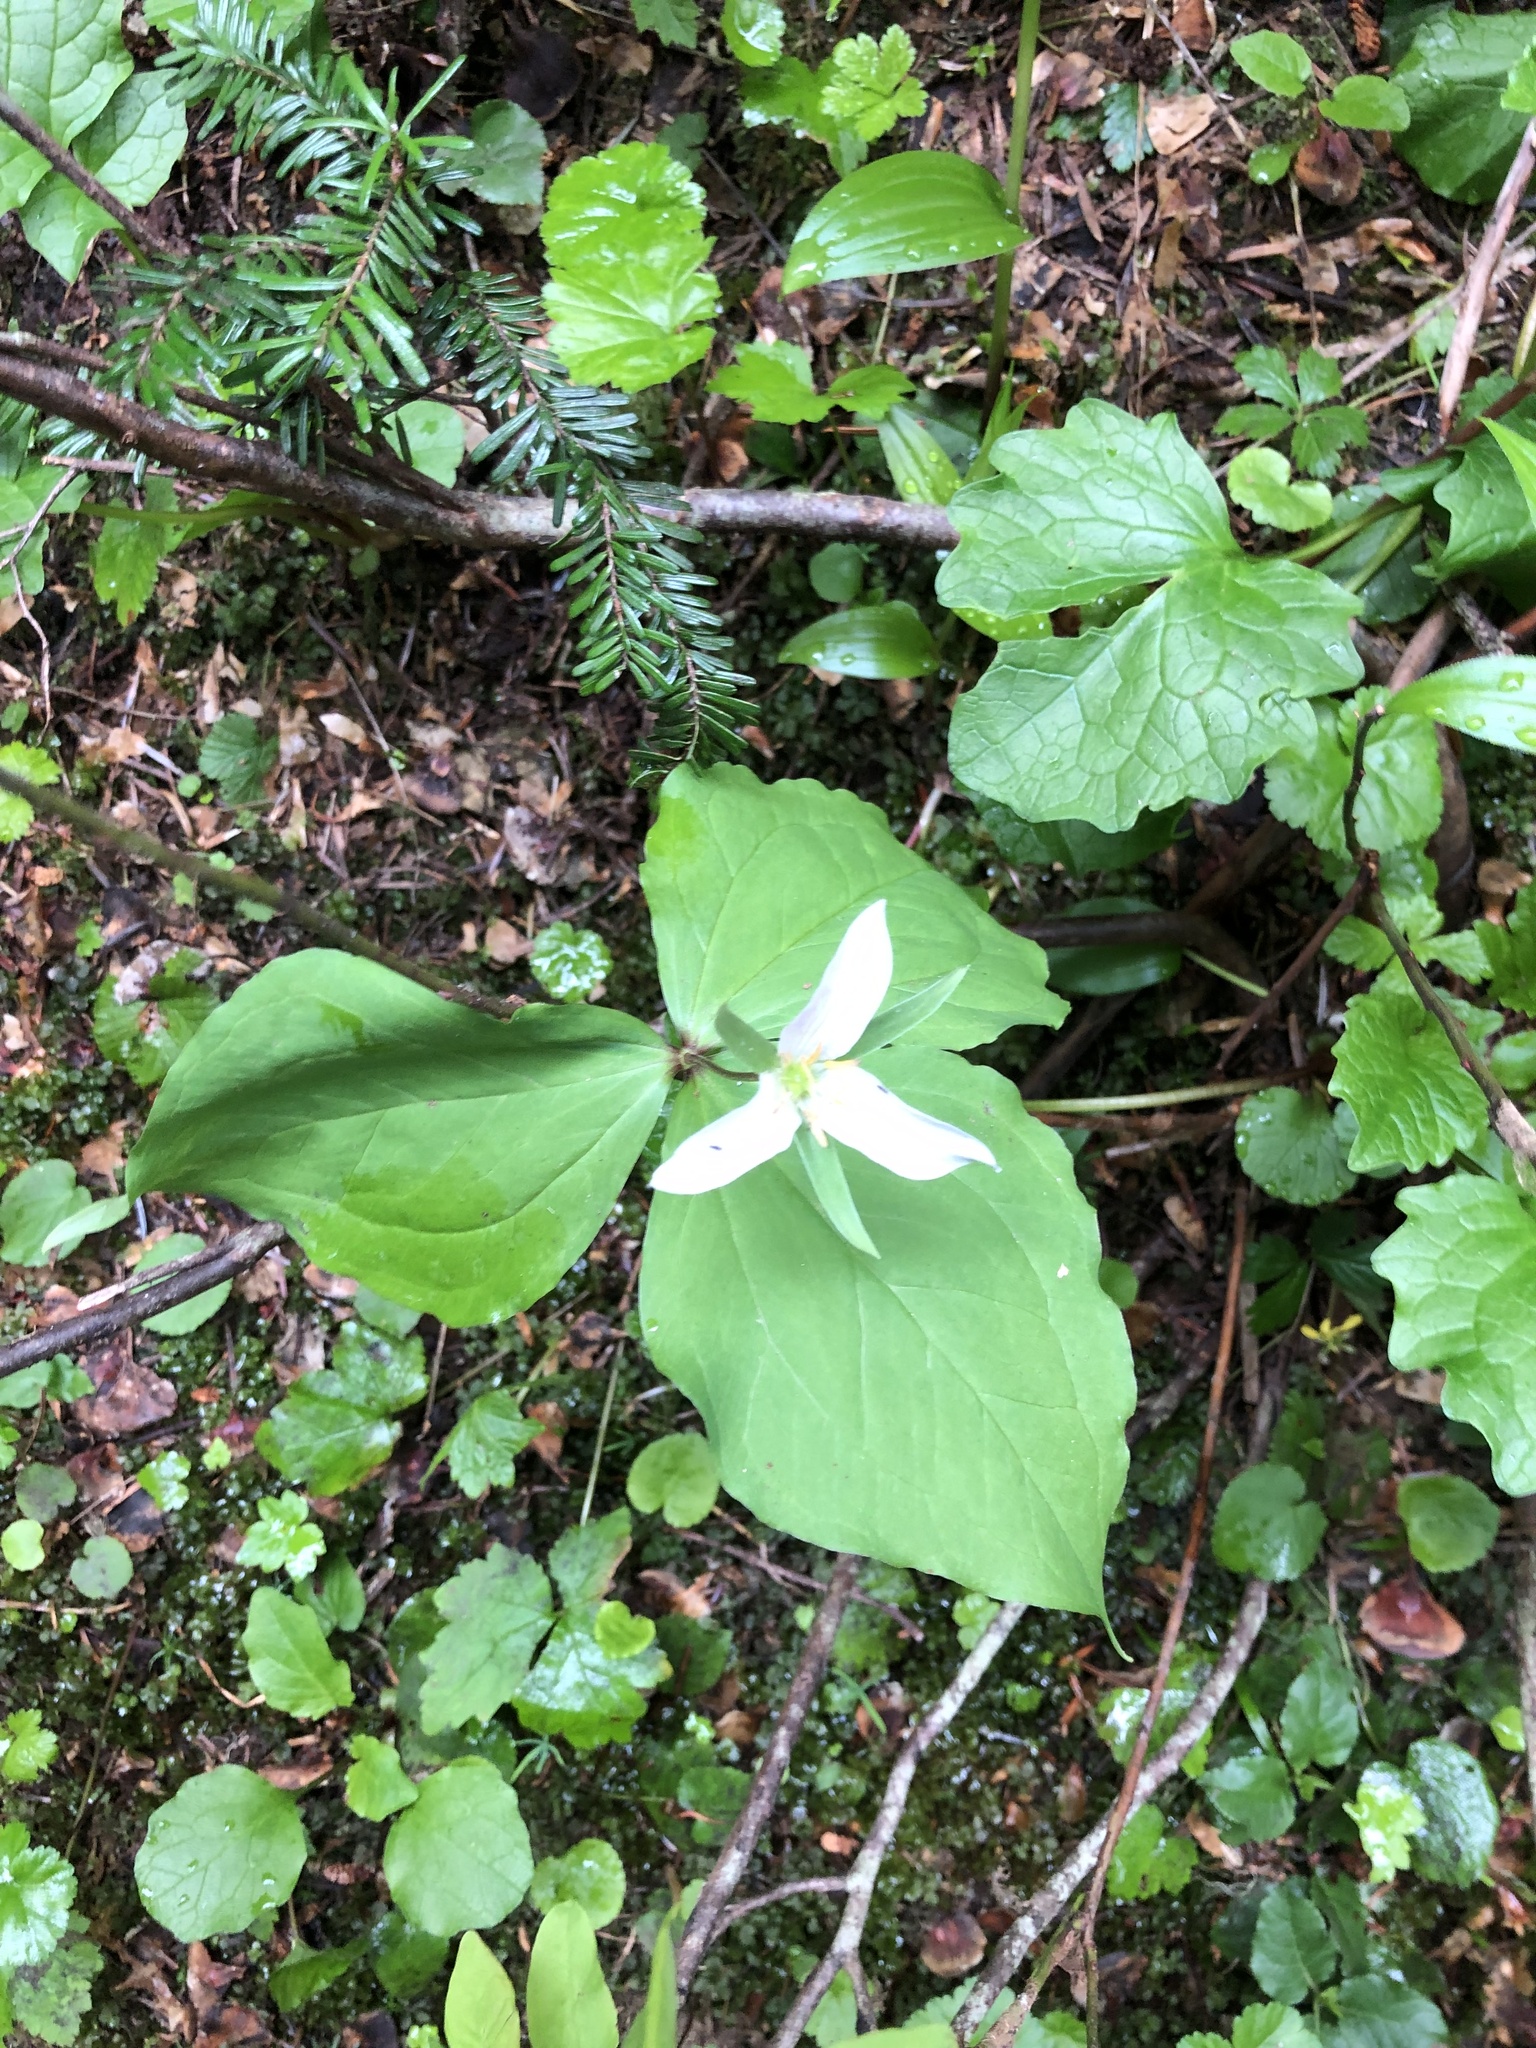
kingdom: Plantae
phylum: Tracheophyta
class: Liliopsida
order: Liliales
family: Melanthiaceae
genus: Trillium
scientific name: Trillium ovatum
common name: Pacific trillium
